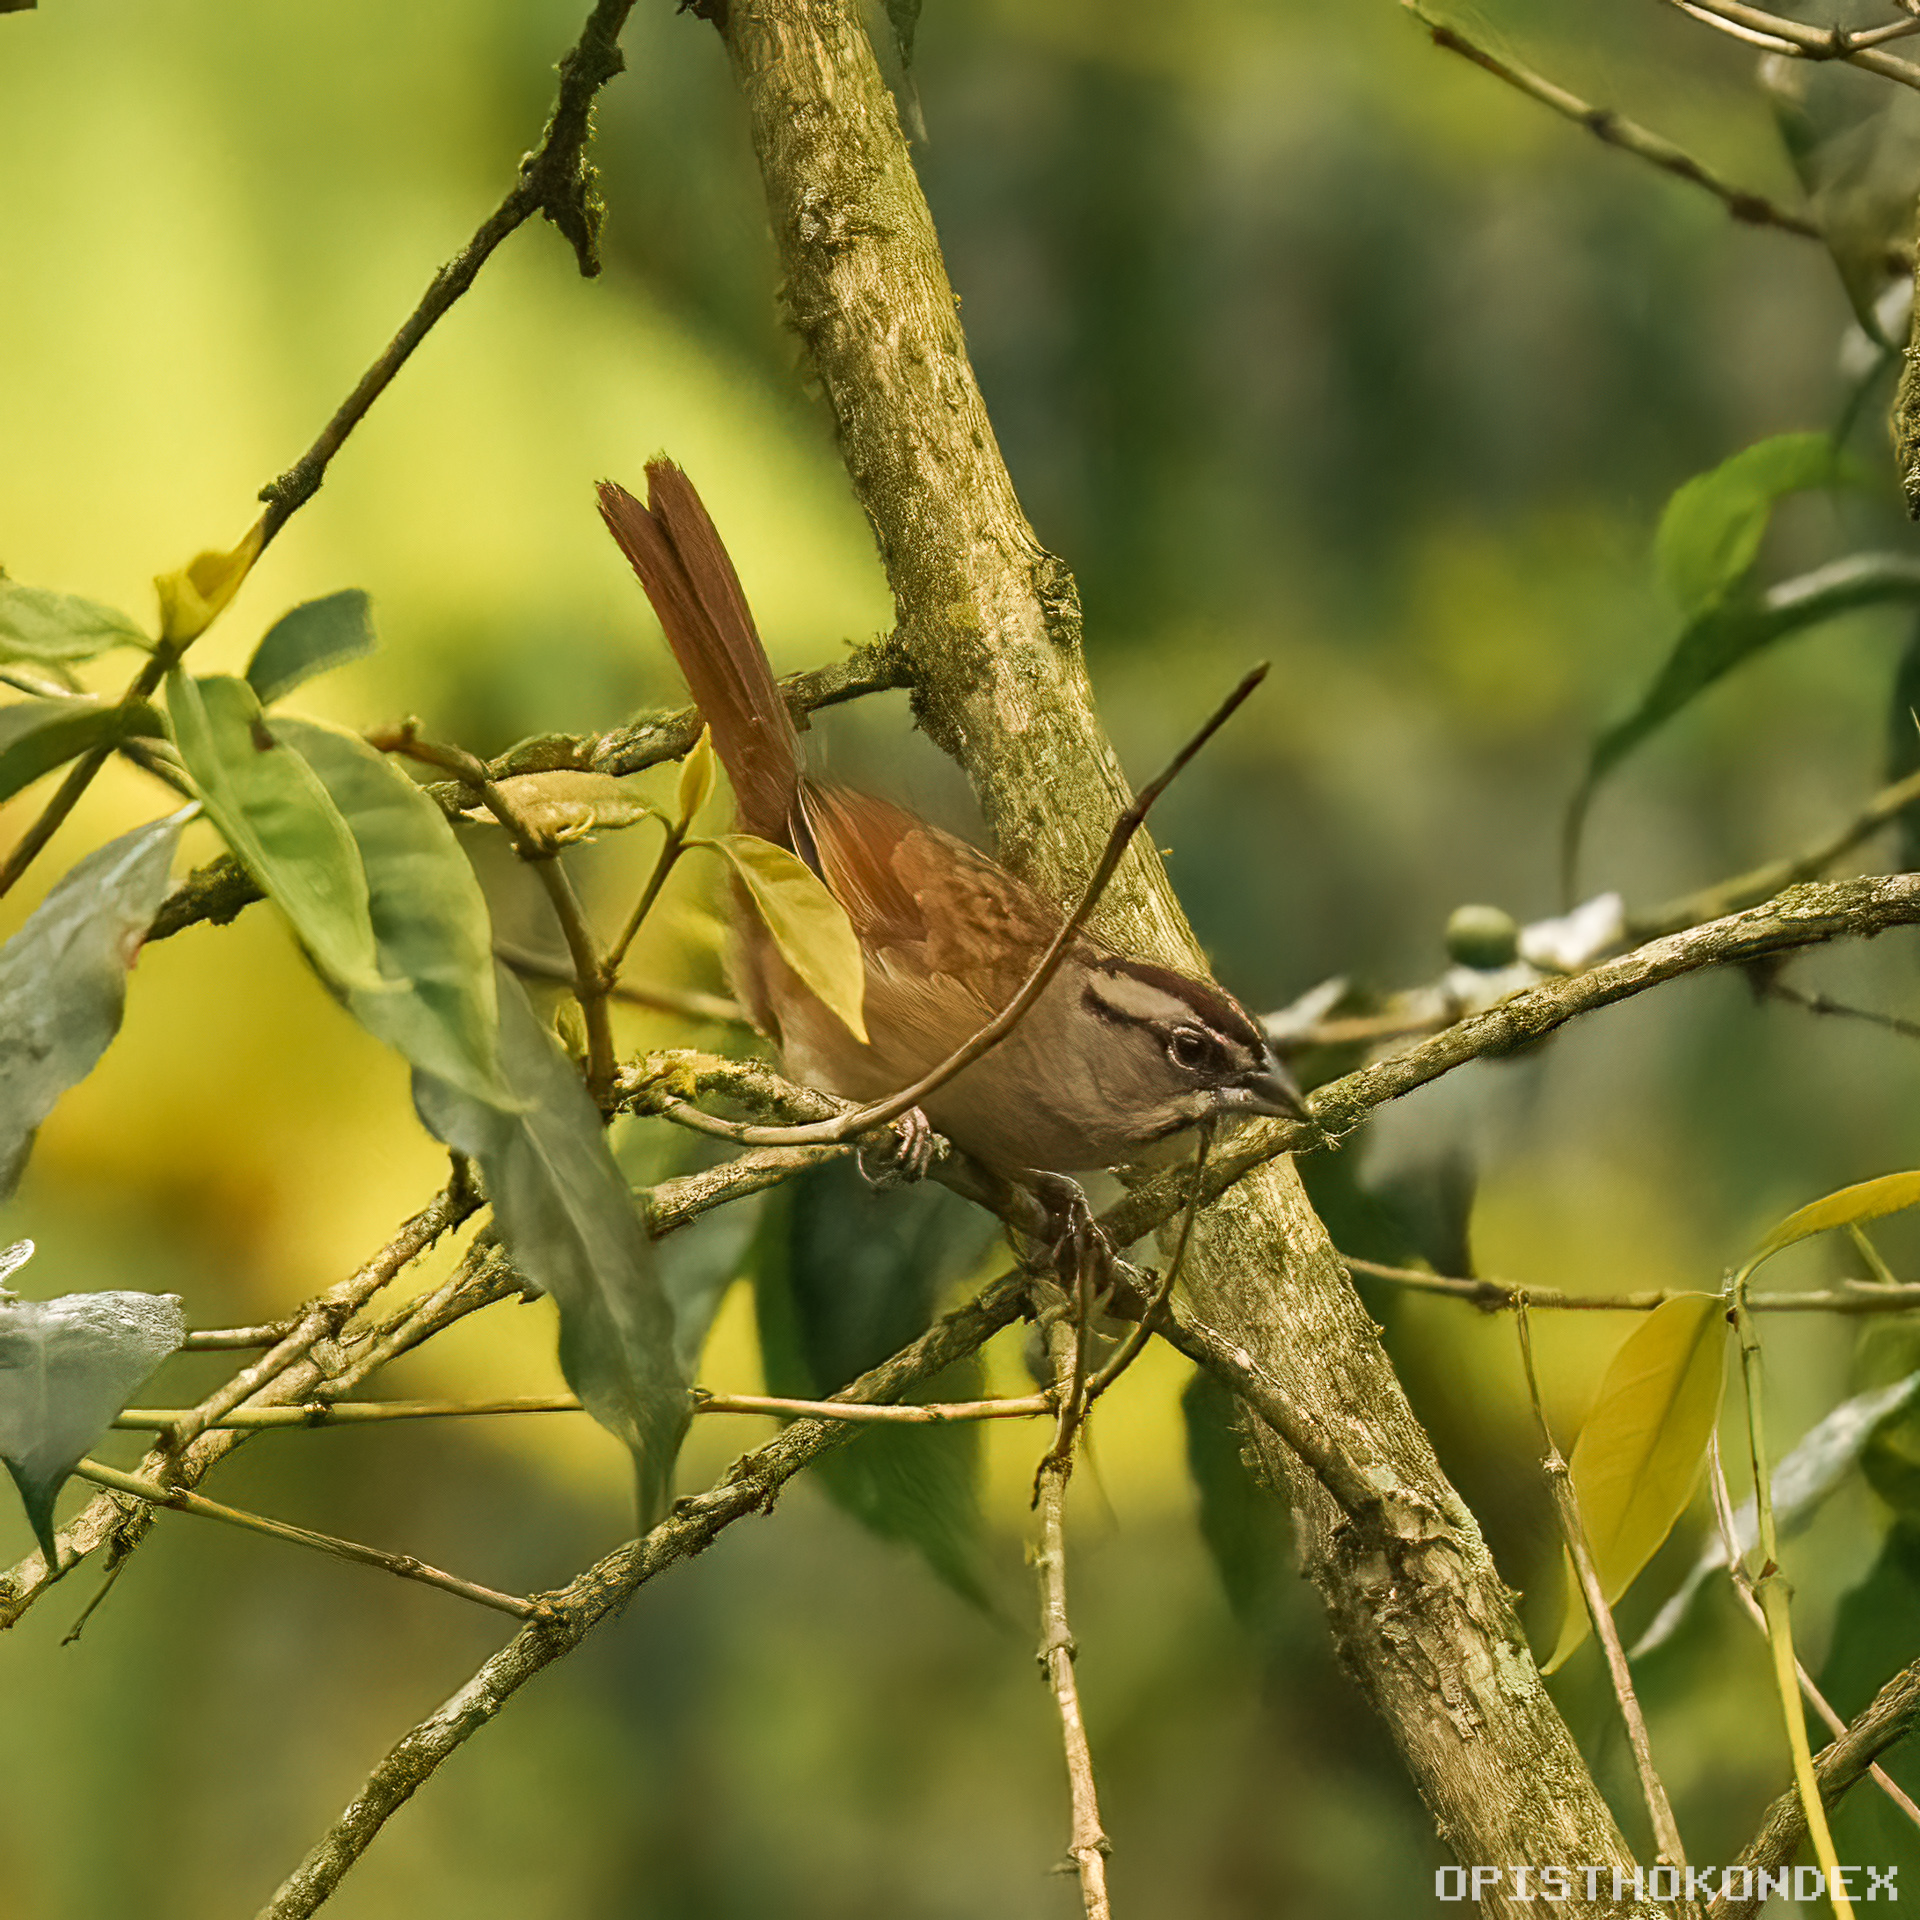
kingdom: Animalia
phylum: Chordata
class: Aves
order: Passeriformes
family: Passerellidae
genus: Aimophila
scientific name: Aimophila rufescens
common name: Rusty sparrow
